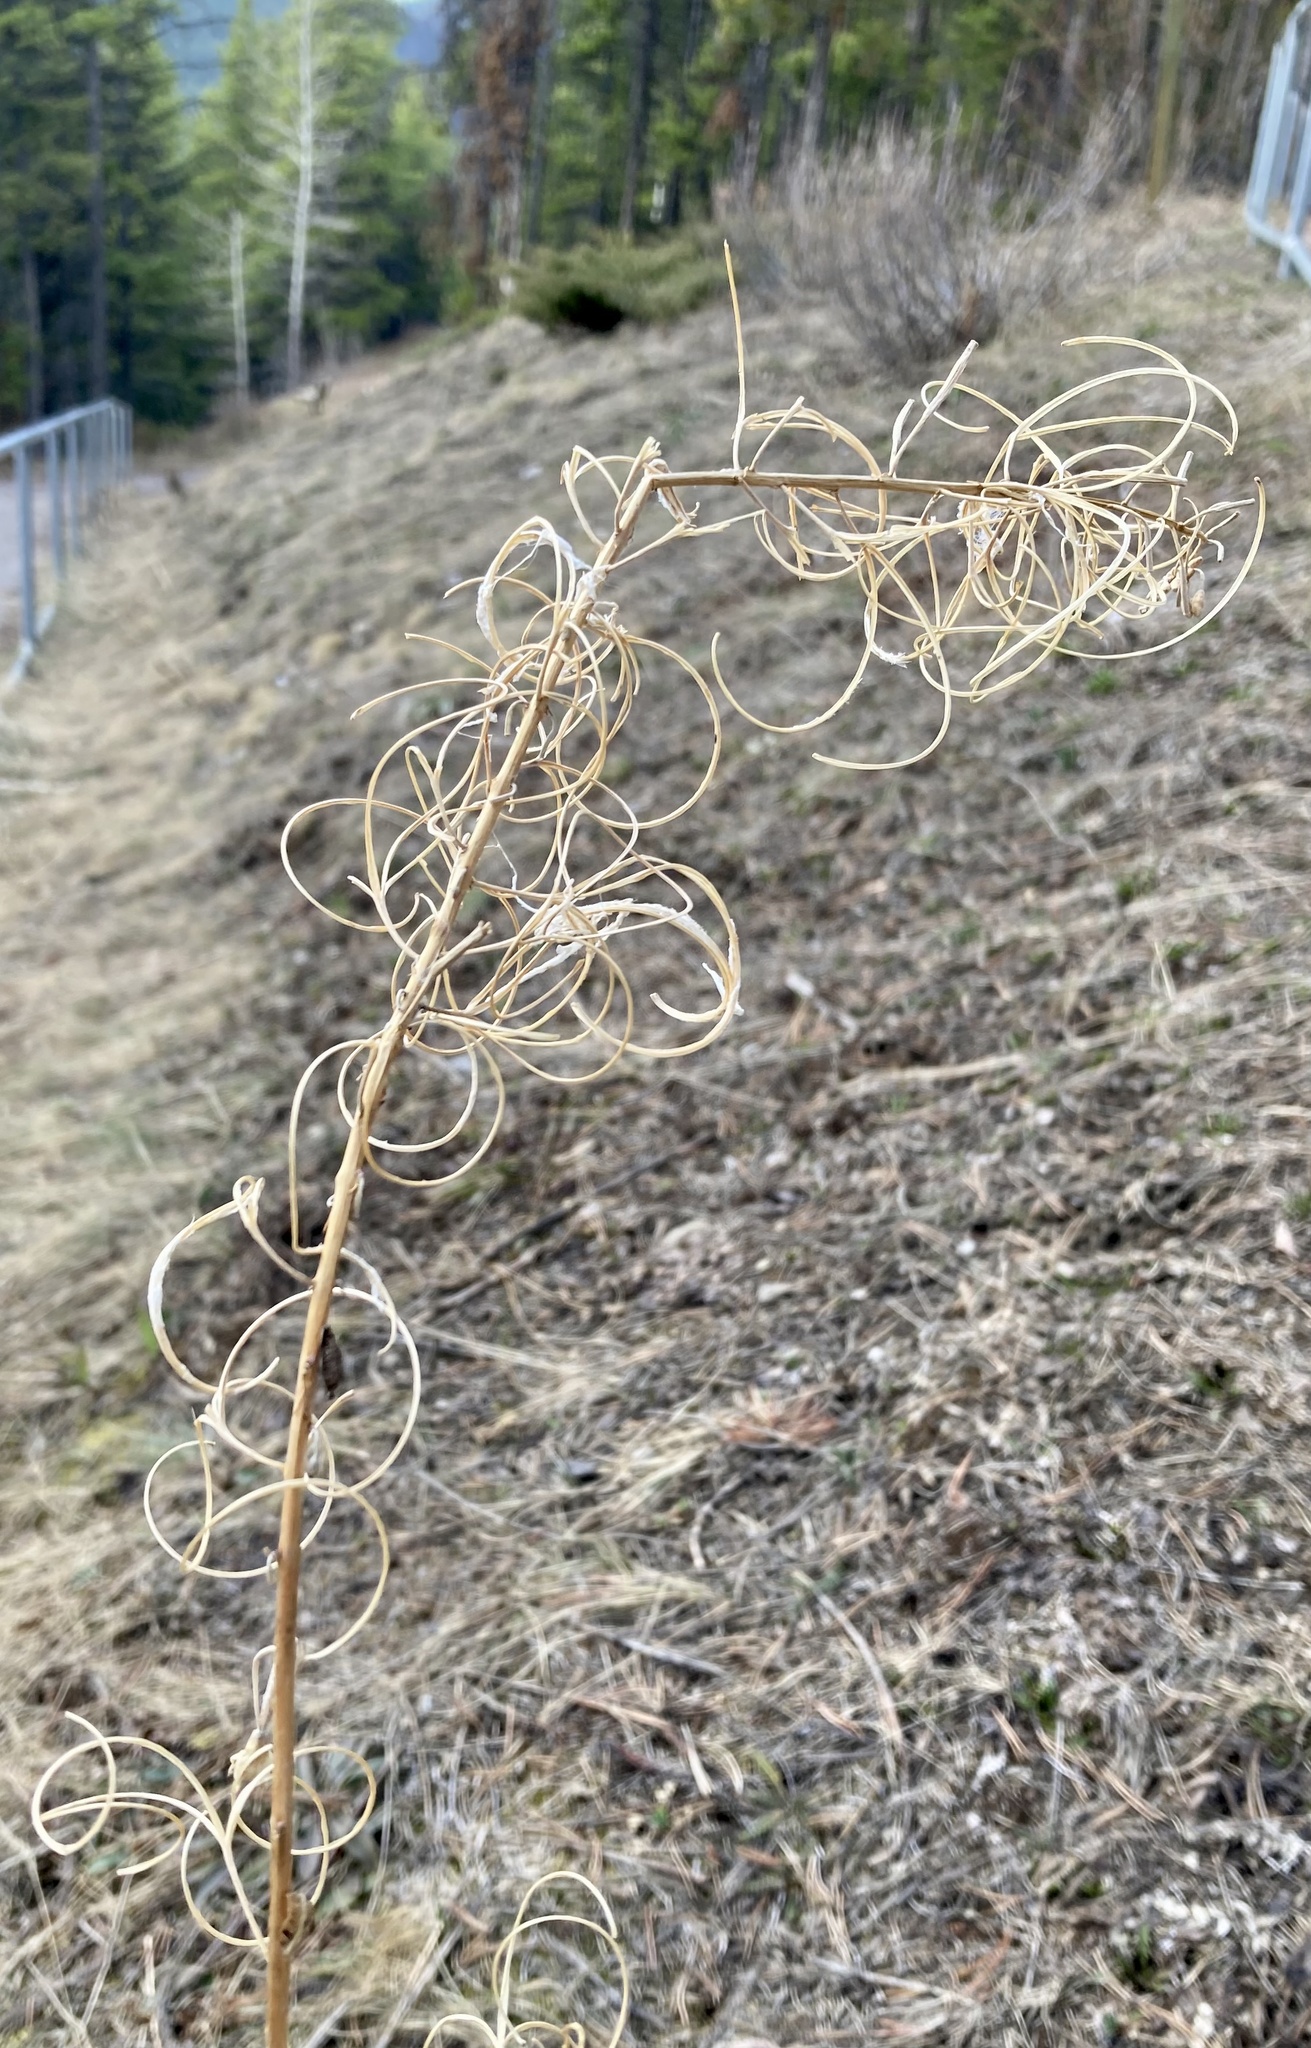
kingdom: Plantae
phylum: Tracheophyta
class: Magnoliopsida
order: Myrtales
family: Onagraceae
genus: Chamaenerion
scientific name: Chamaenerion angustifolium
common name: Fireweed
